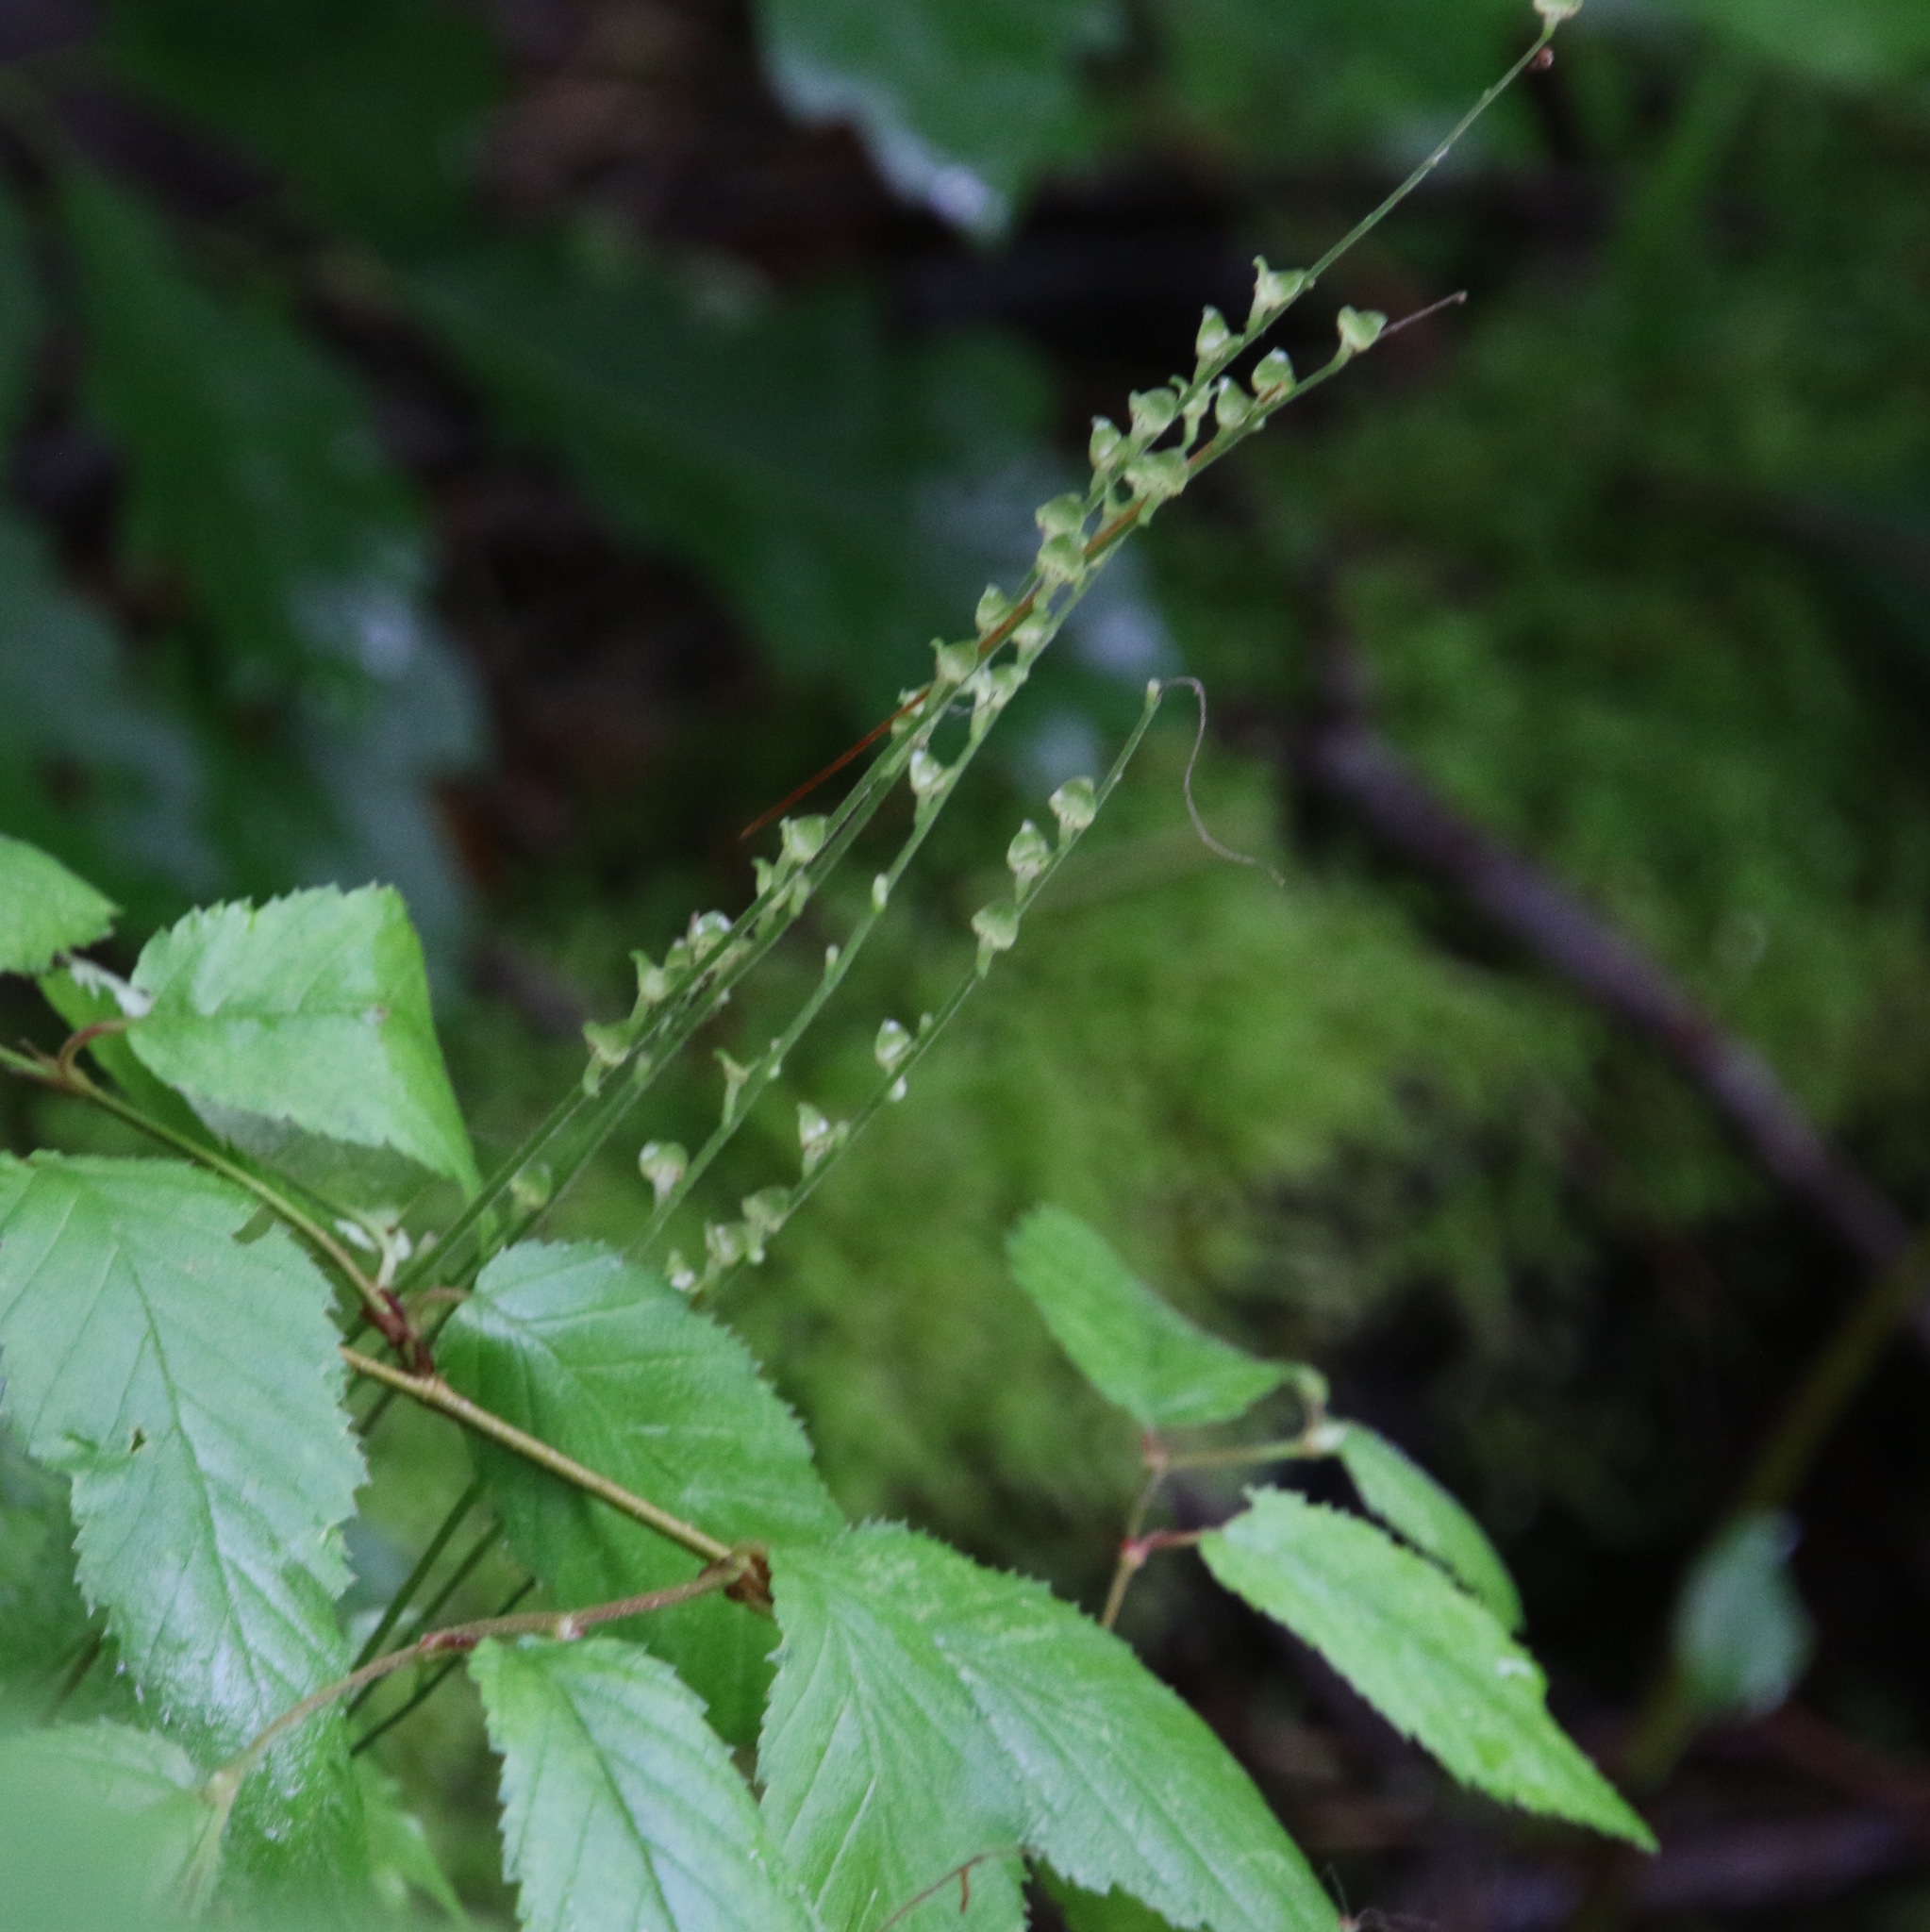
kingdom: Plantae
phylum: Tracheophyta
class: Magnoliopsida
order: Saxifragales
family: Saxifragaceae
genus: Mitella
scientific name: Mitella diphylla
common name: Coolwort
